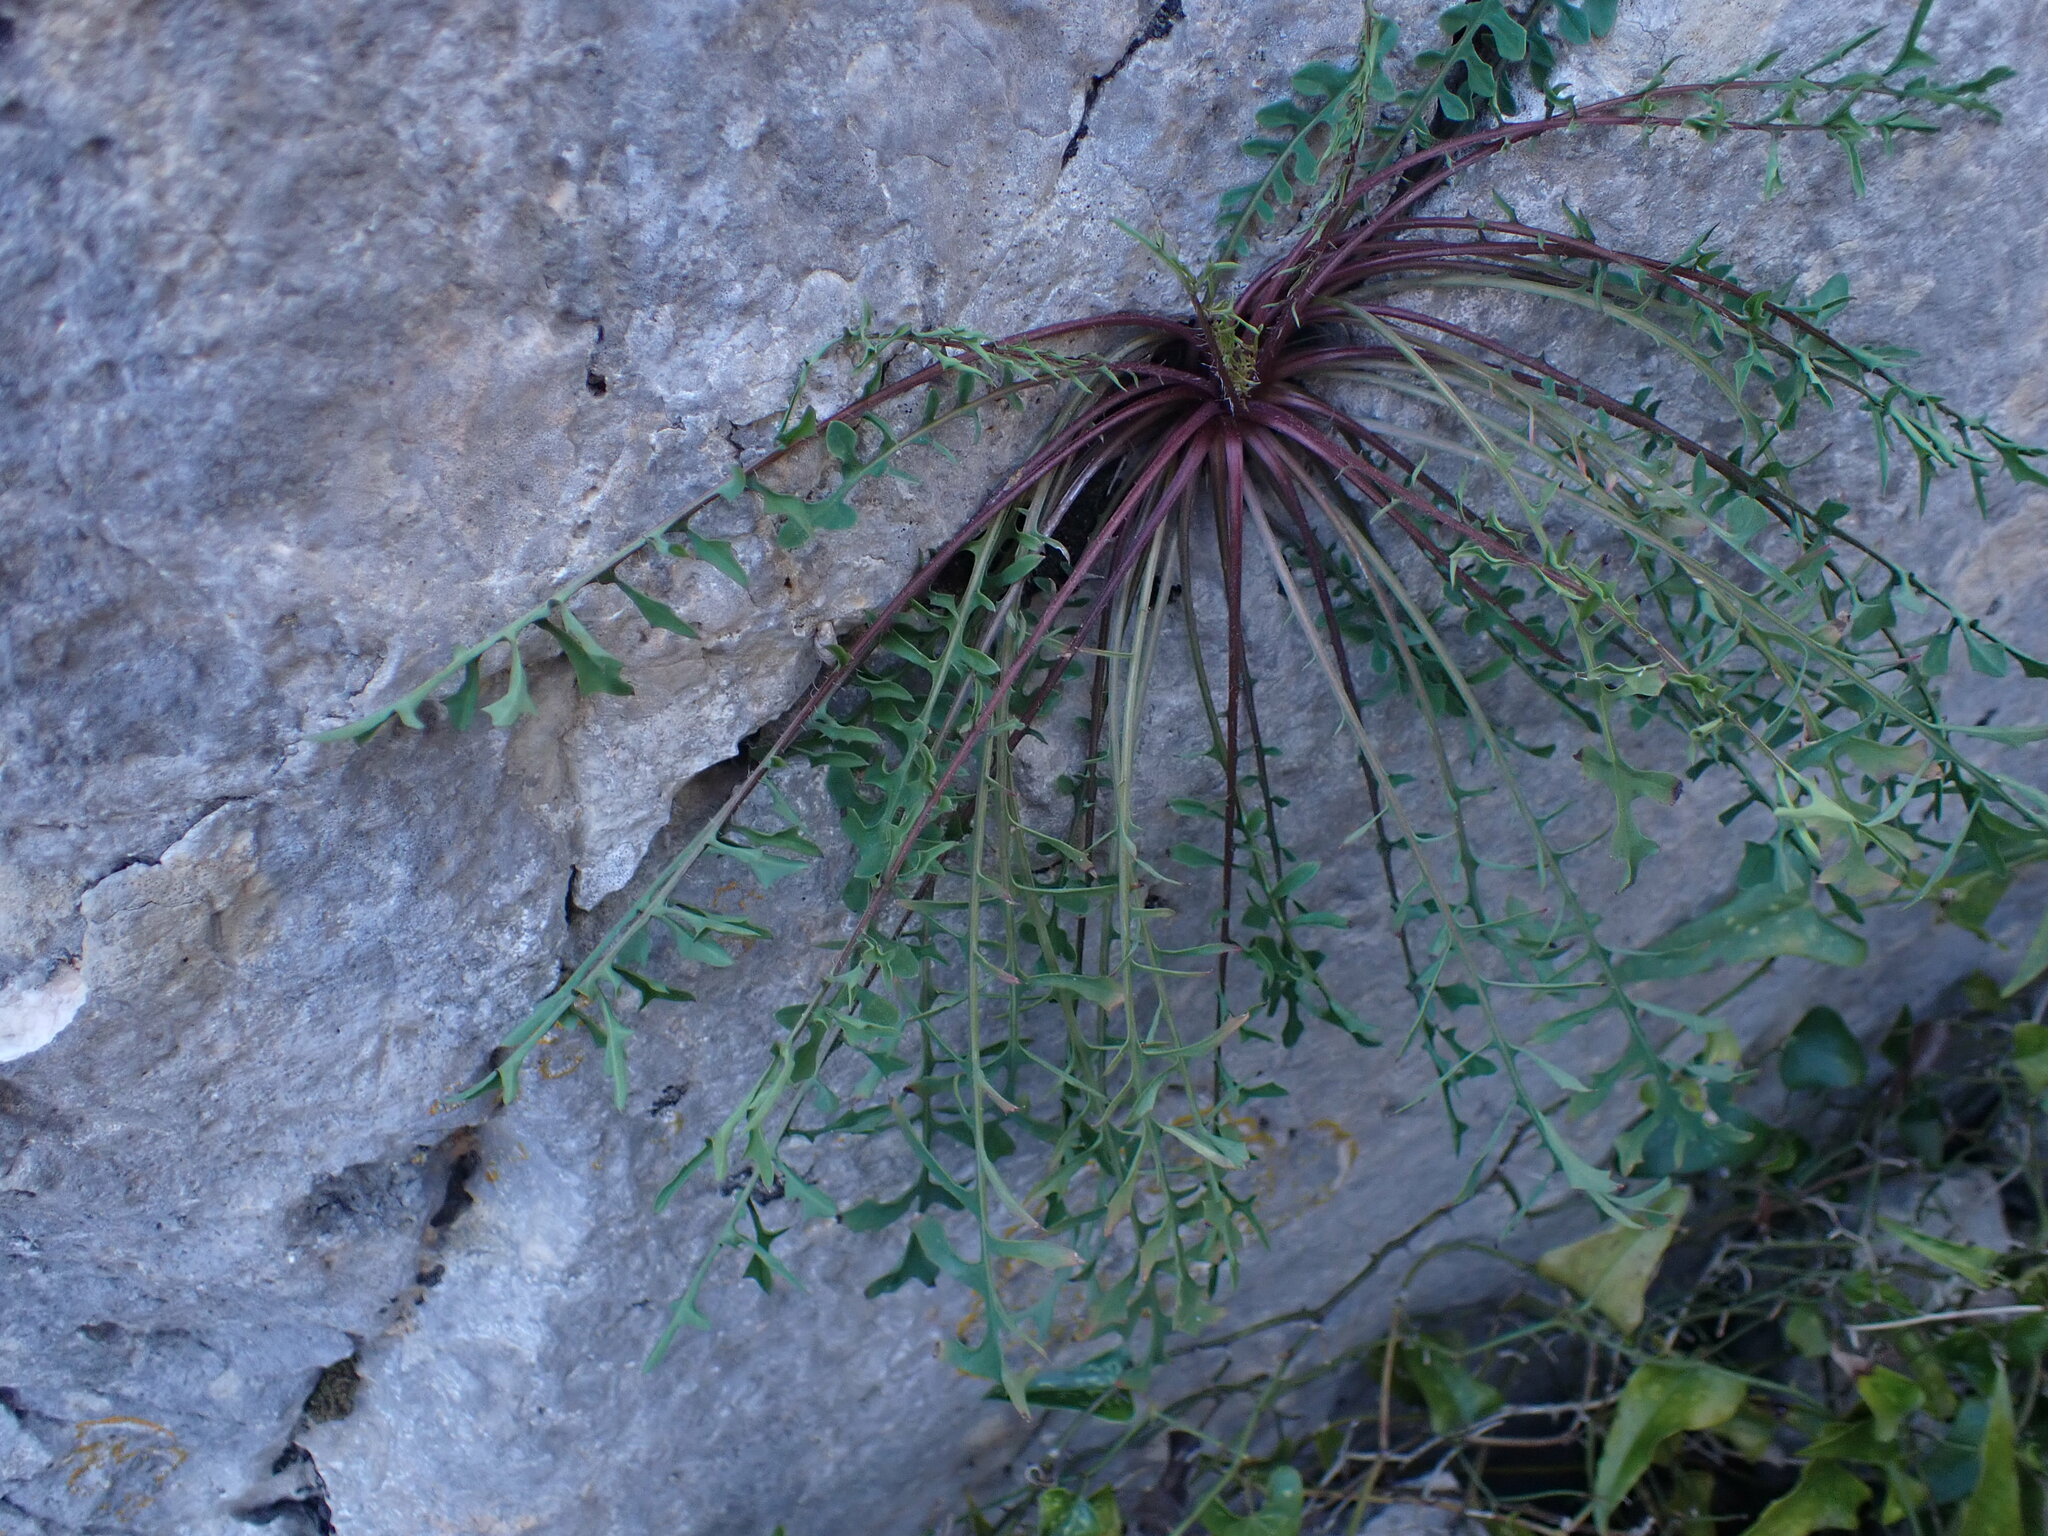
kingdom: Plantae
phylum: Tracheophyta
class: Magnoliopsida
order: Asterales
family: Asteraceae
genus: Lactuca
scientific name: Lactuca perennis
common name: Mountain lettuce
